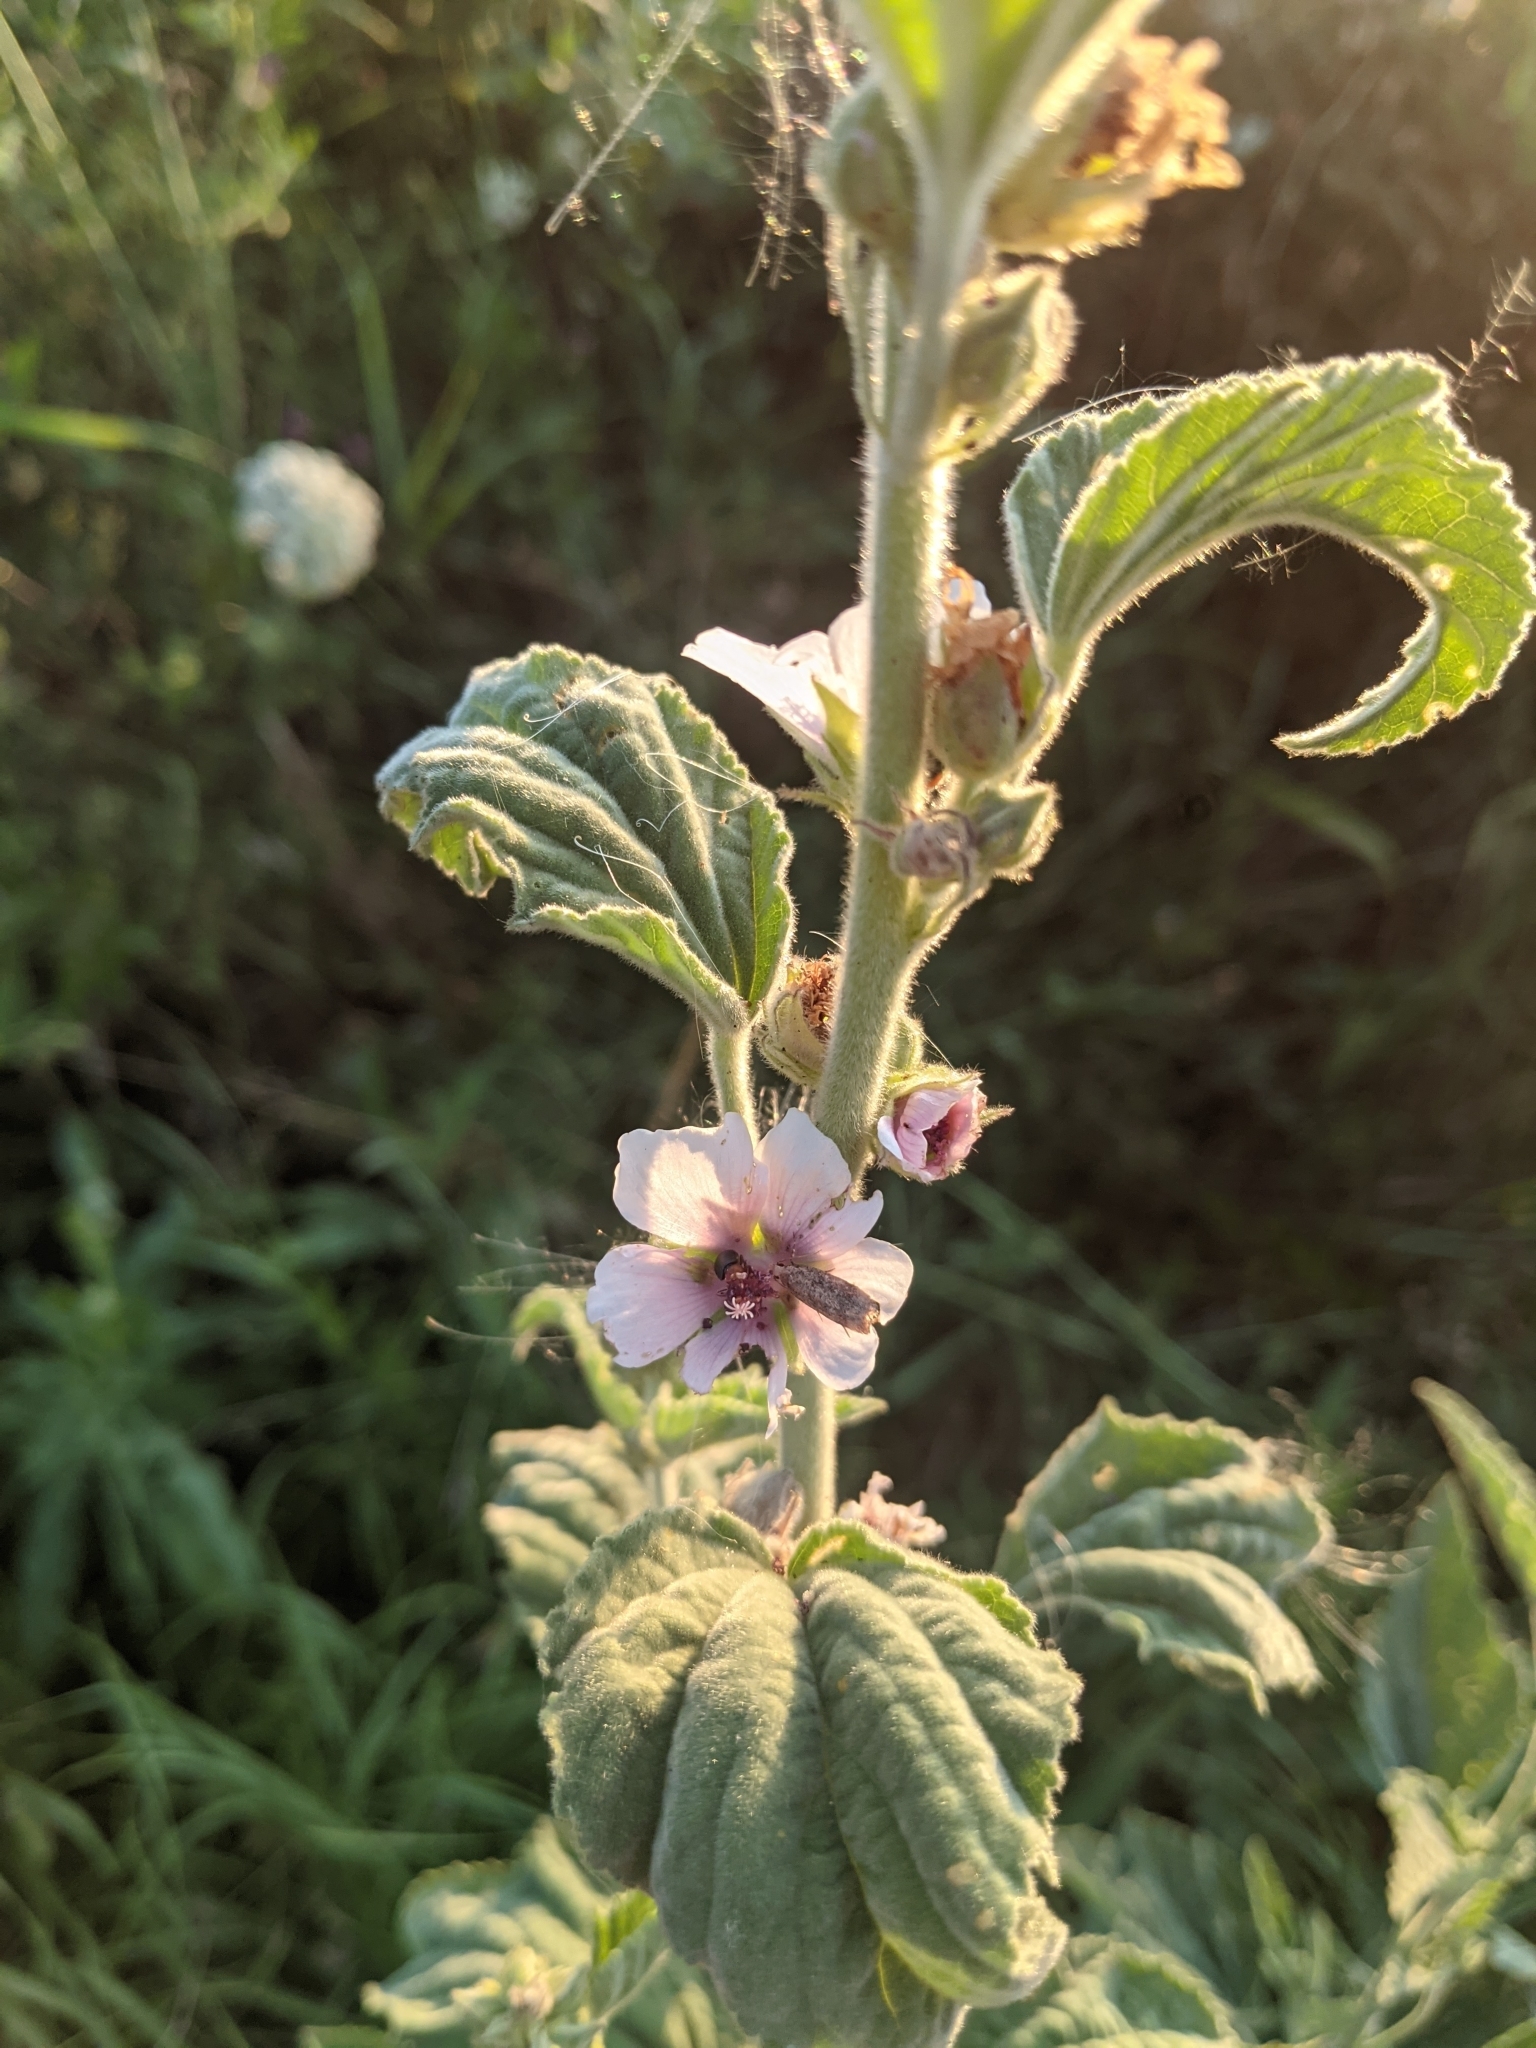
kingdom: Plantae
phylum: Tracheophyta
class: Magnoliopsida
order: Malvales
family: Malvaceae
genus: Althaea
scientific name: Althaea officinalis
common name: Marsh-mallow
